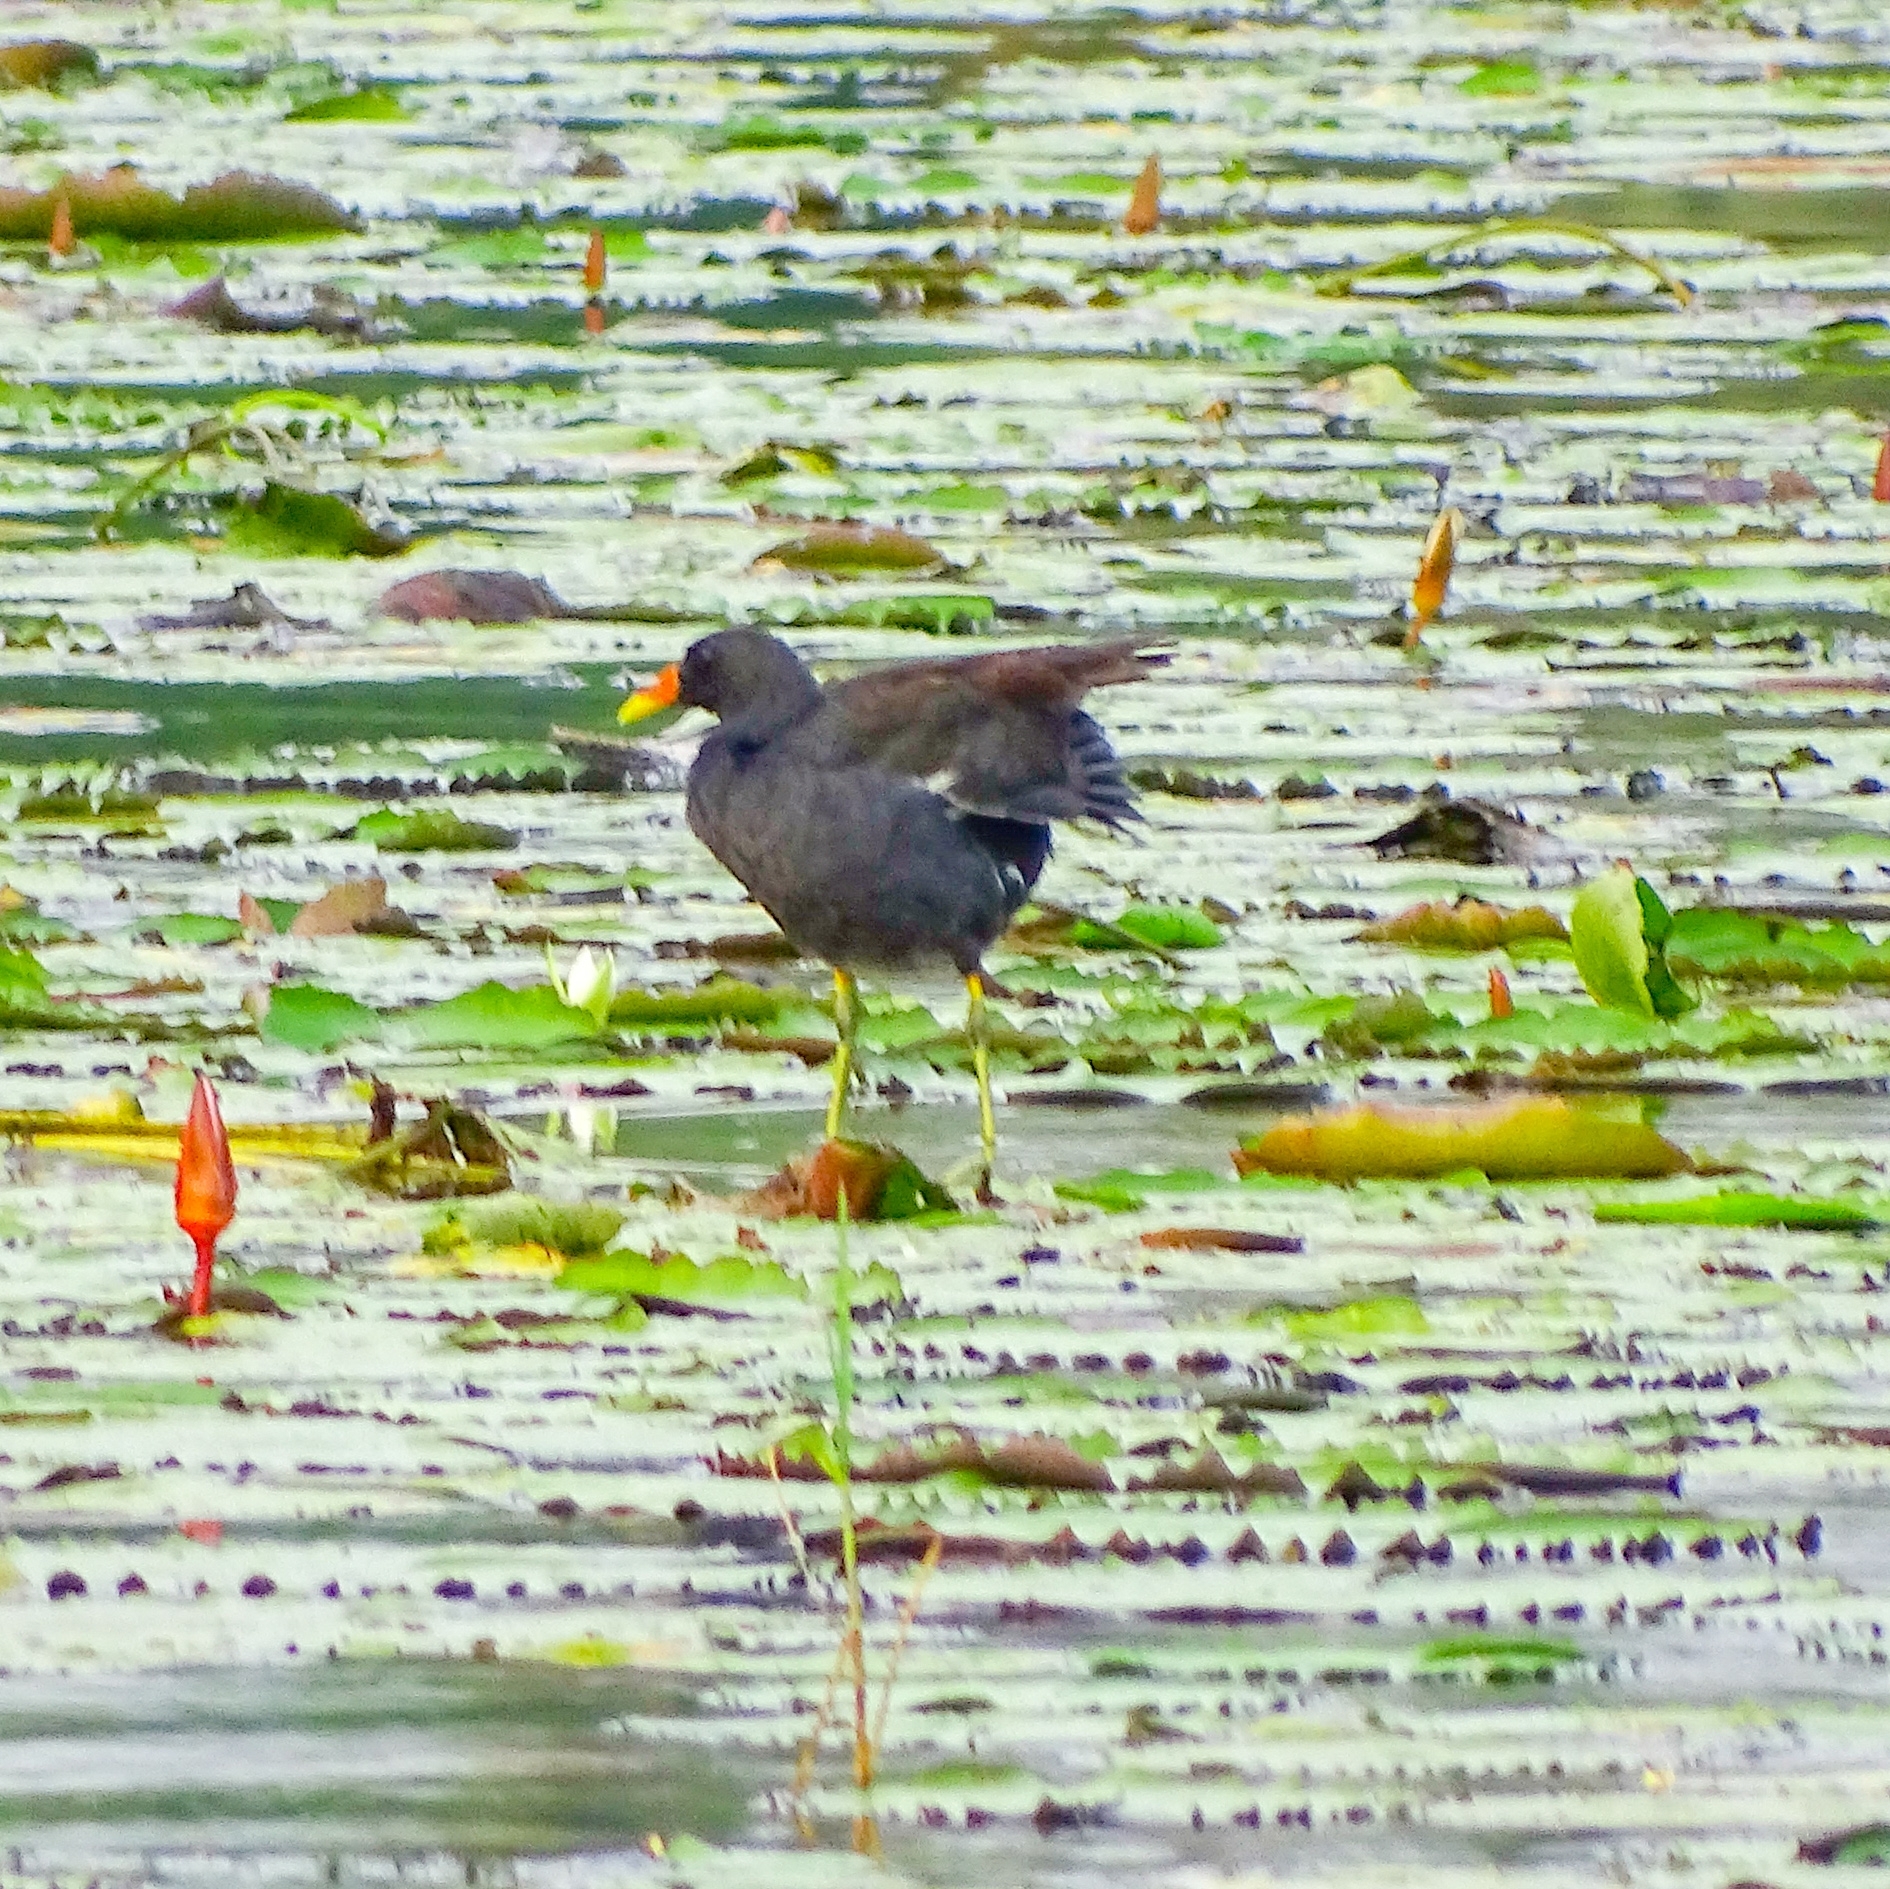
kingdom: Animalia
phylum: Chordata
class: Aves
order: Gruiformes
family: Rallidae
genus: Gallinula
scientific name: Gallinula chloropus
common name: Common moorhen
